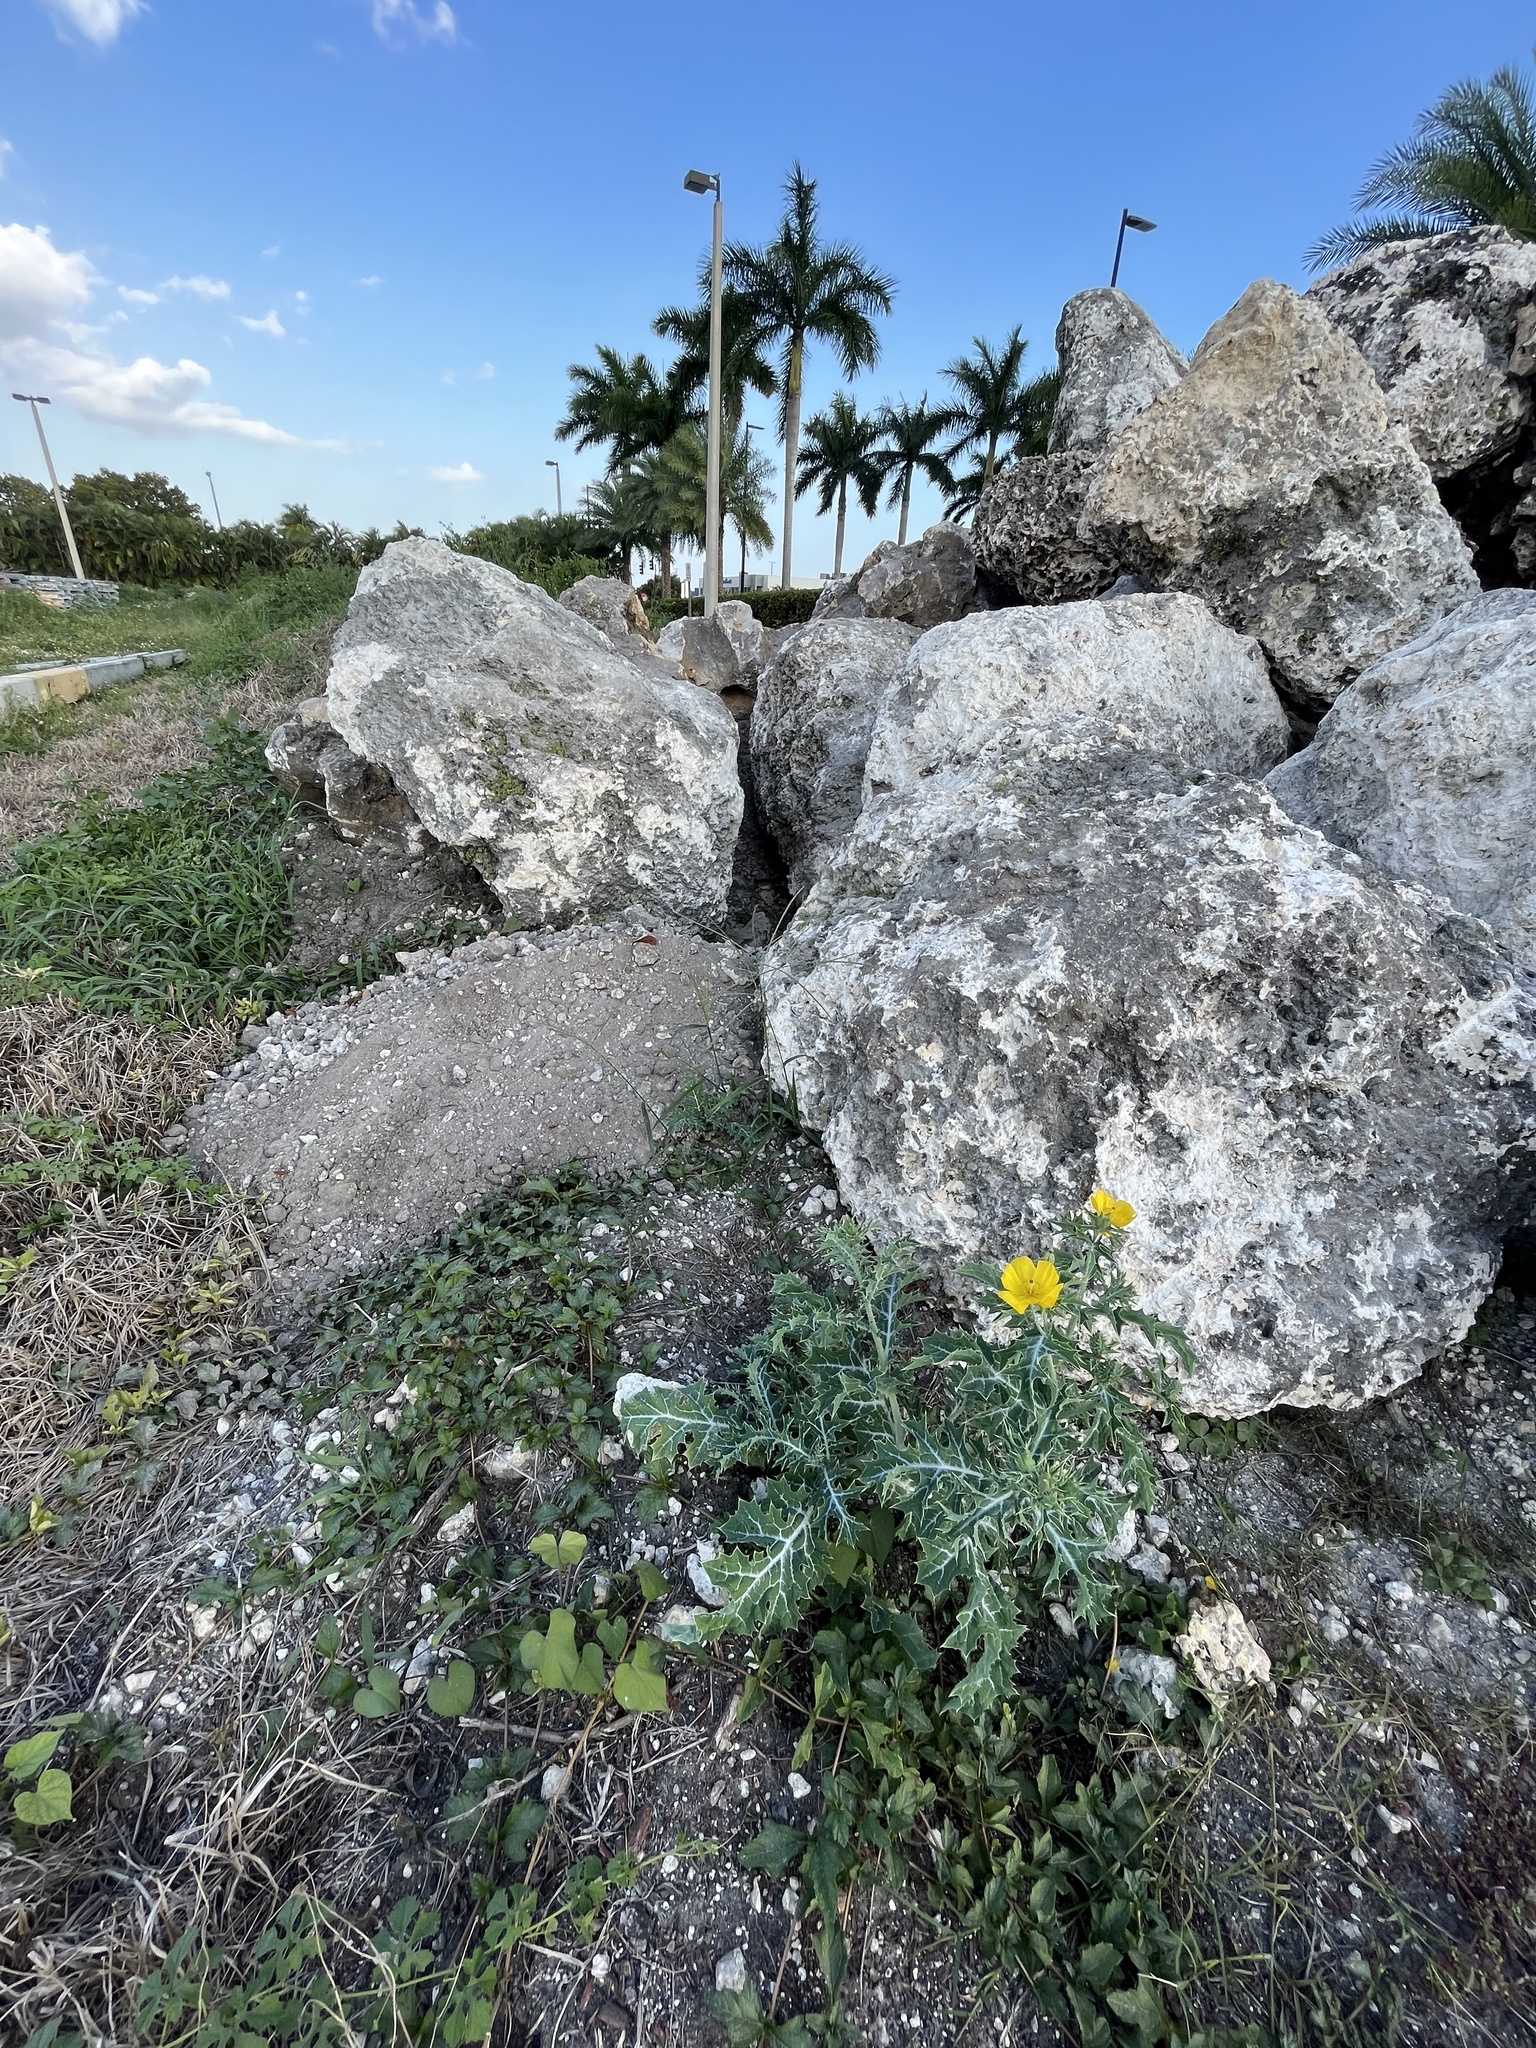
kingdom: Plantae
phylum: Tracheophyta
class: Magnoliopsida
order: Ranunculales
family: Papaveraceae
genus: Argemone
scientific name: Argemone mexicana
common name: Mexican poppy
